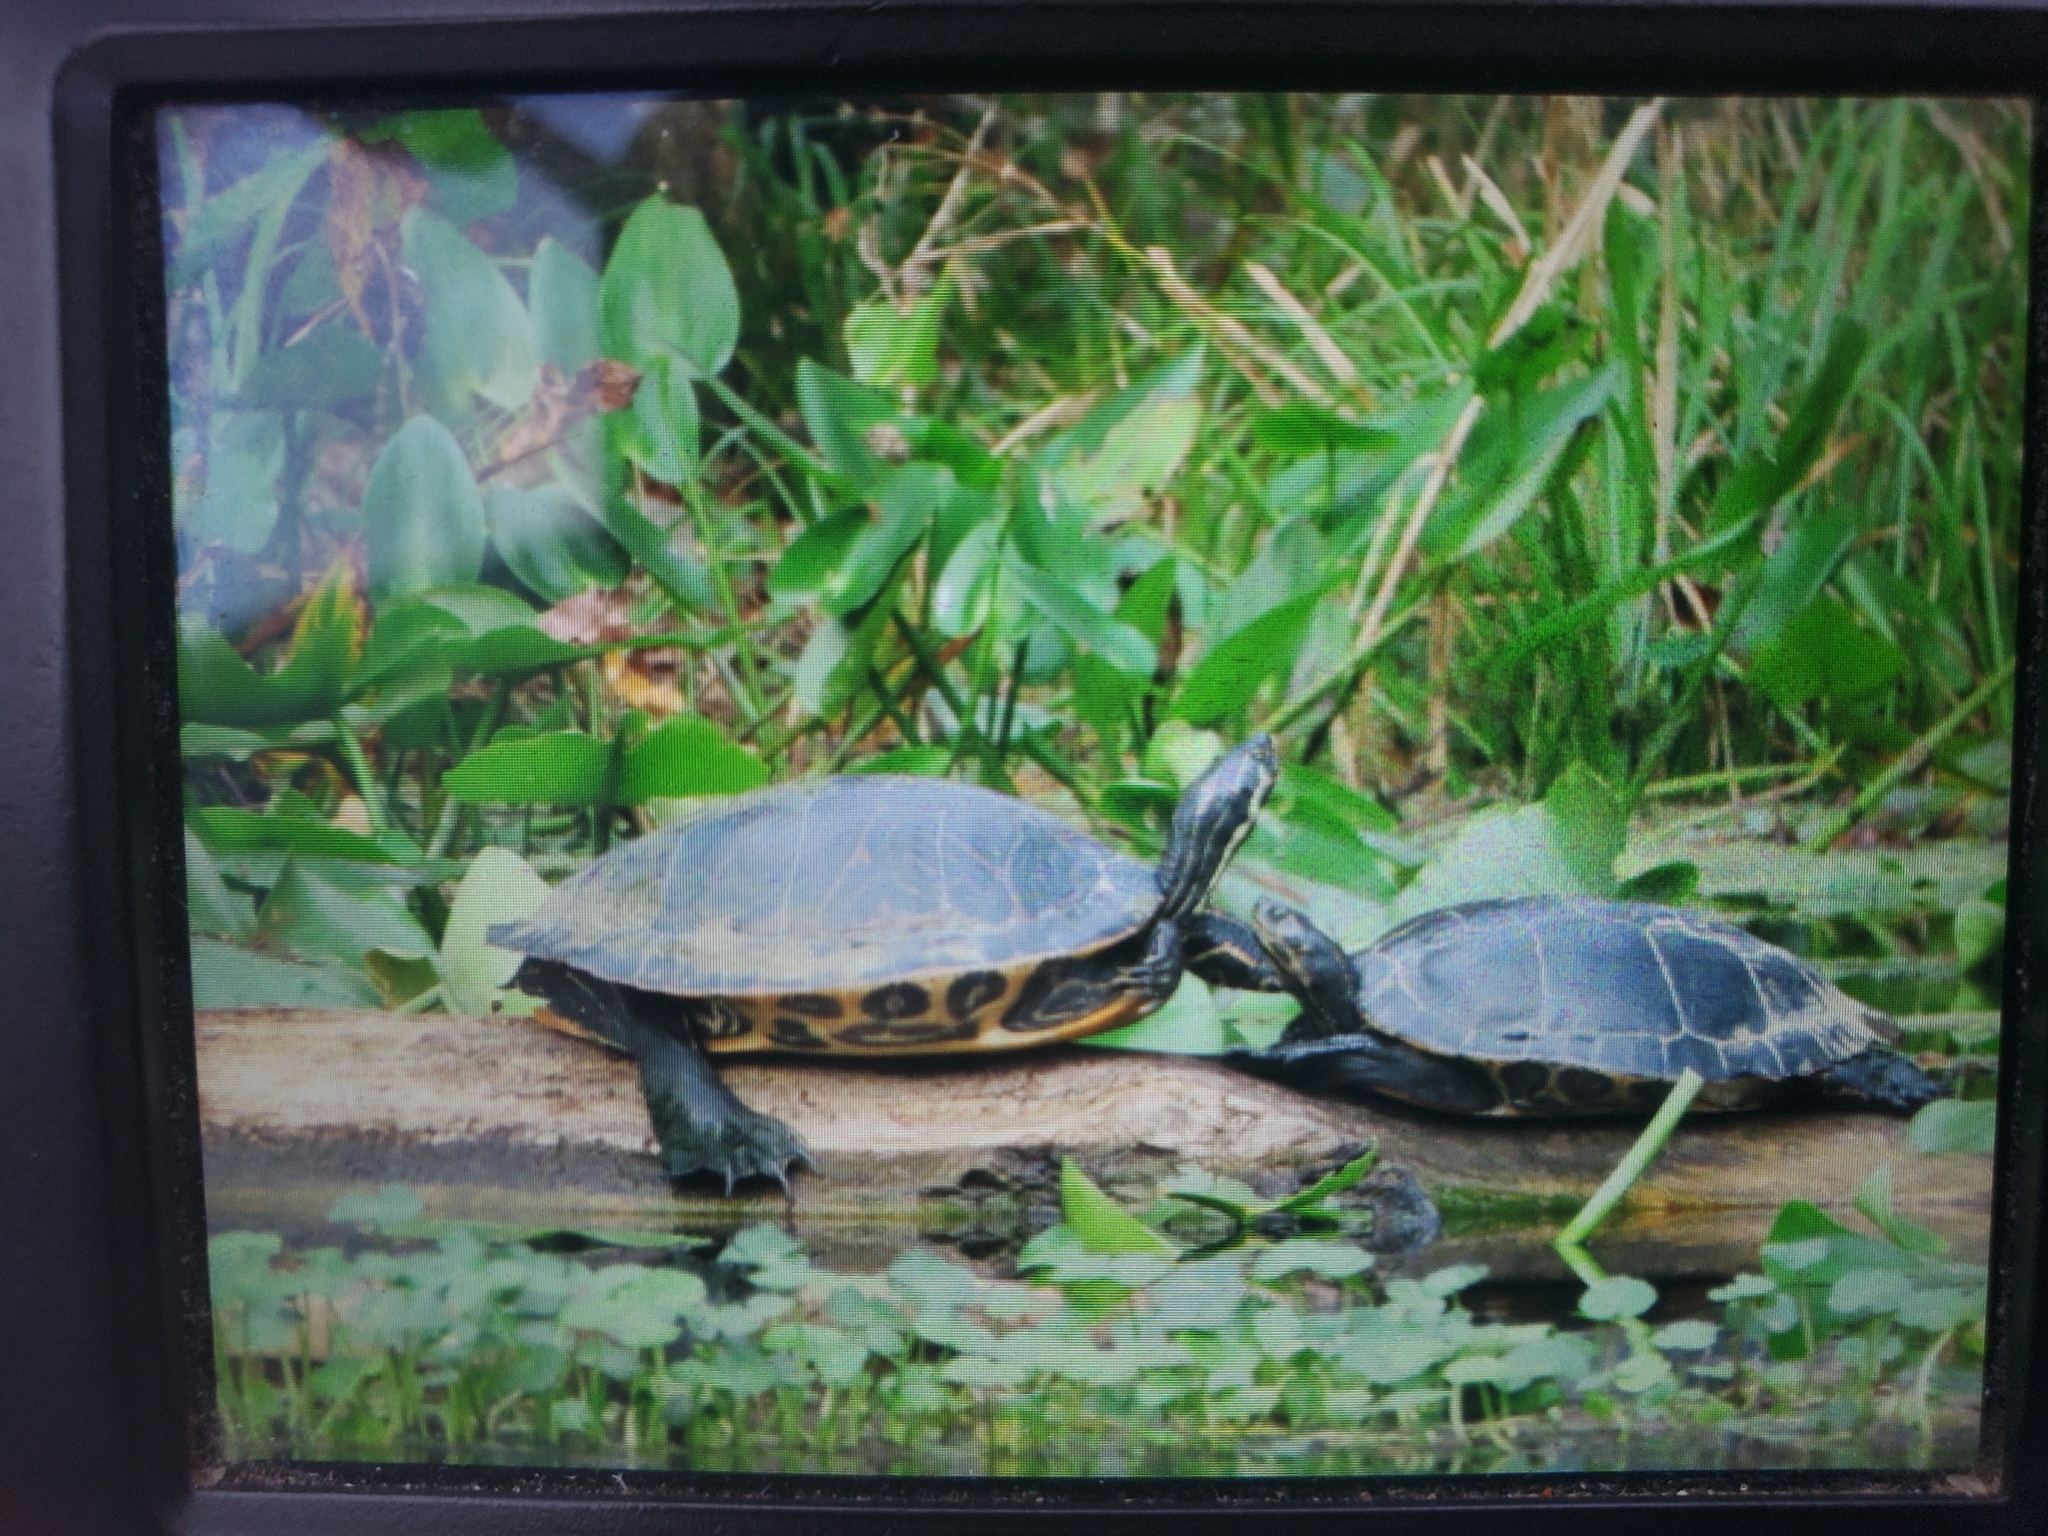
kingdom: Animalia
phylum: Chordata
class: Testudines
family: Emydidae
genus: Pseudemys
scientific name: Pseudemys concinna
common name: Eastern river cooter
